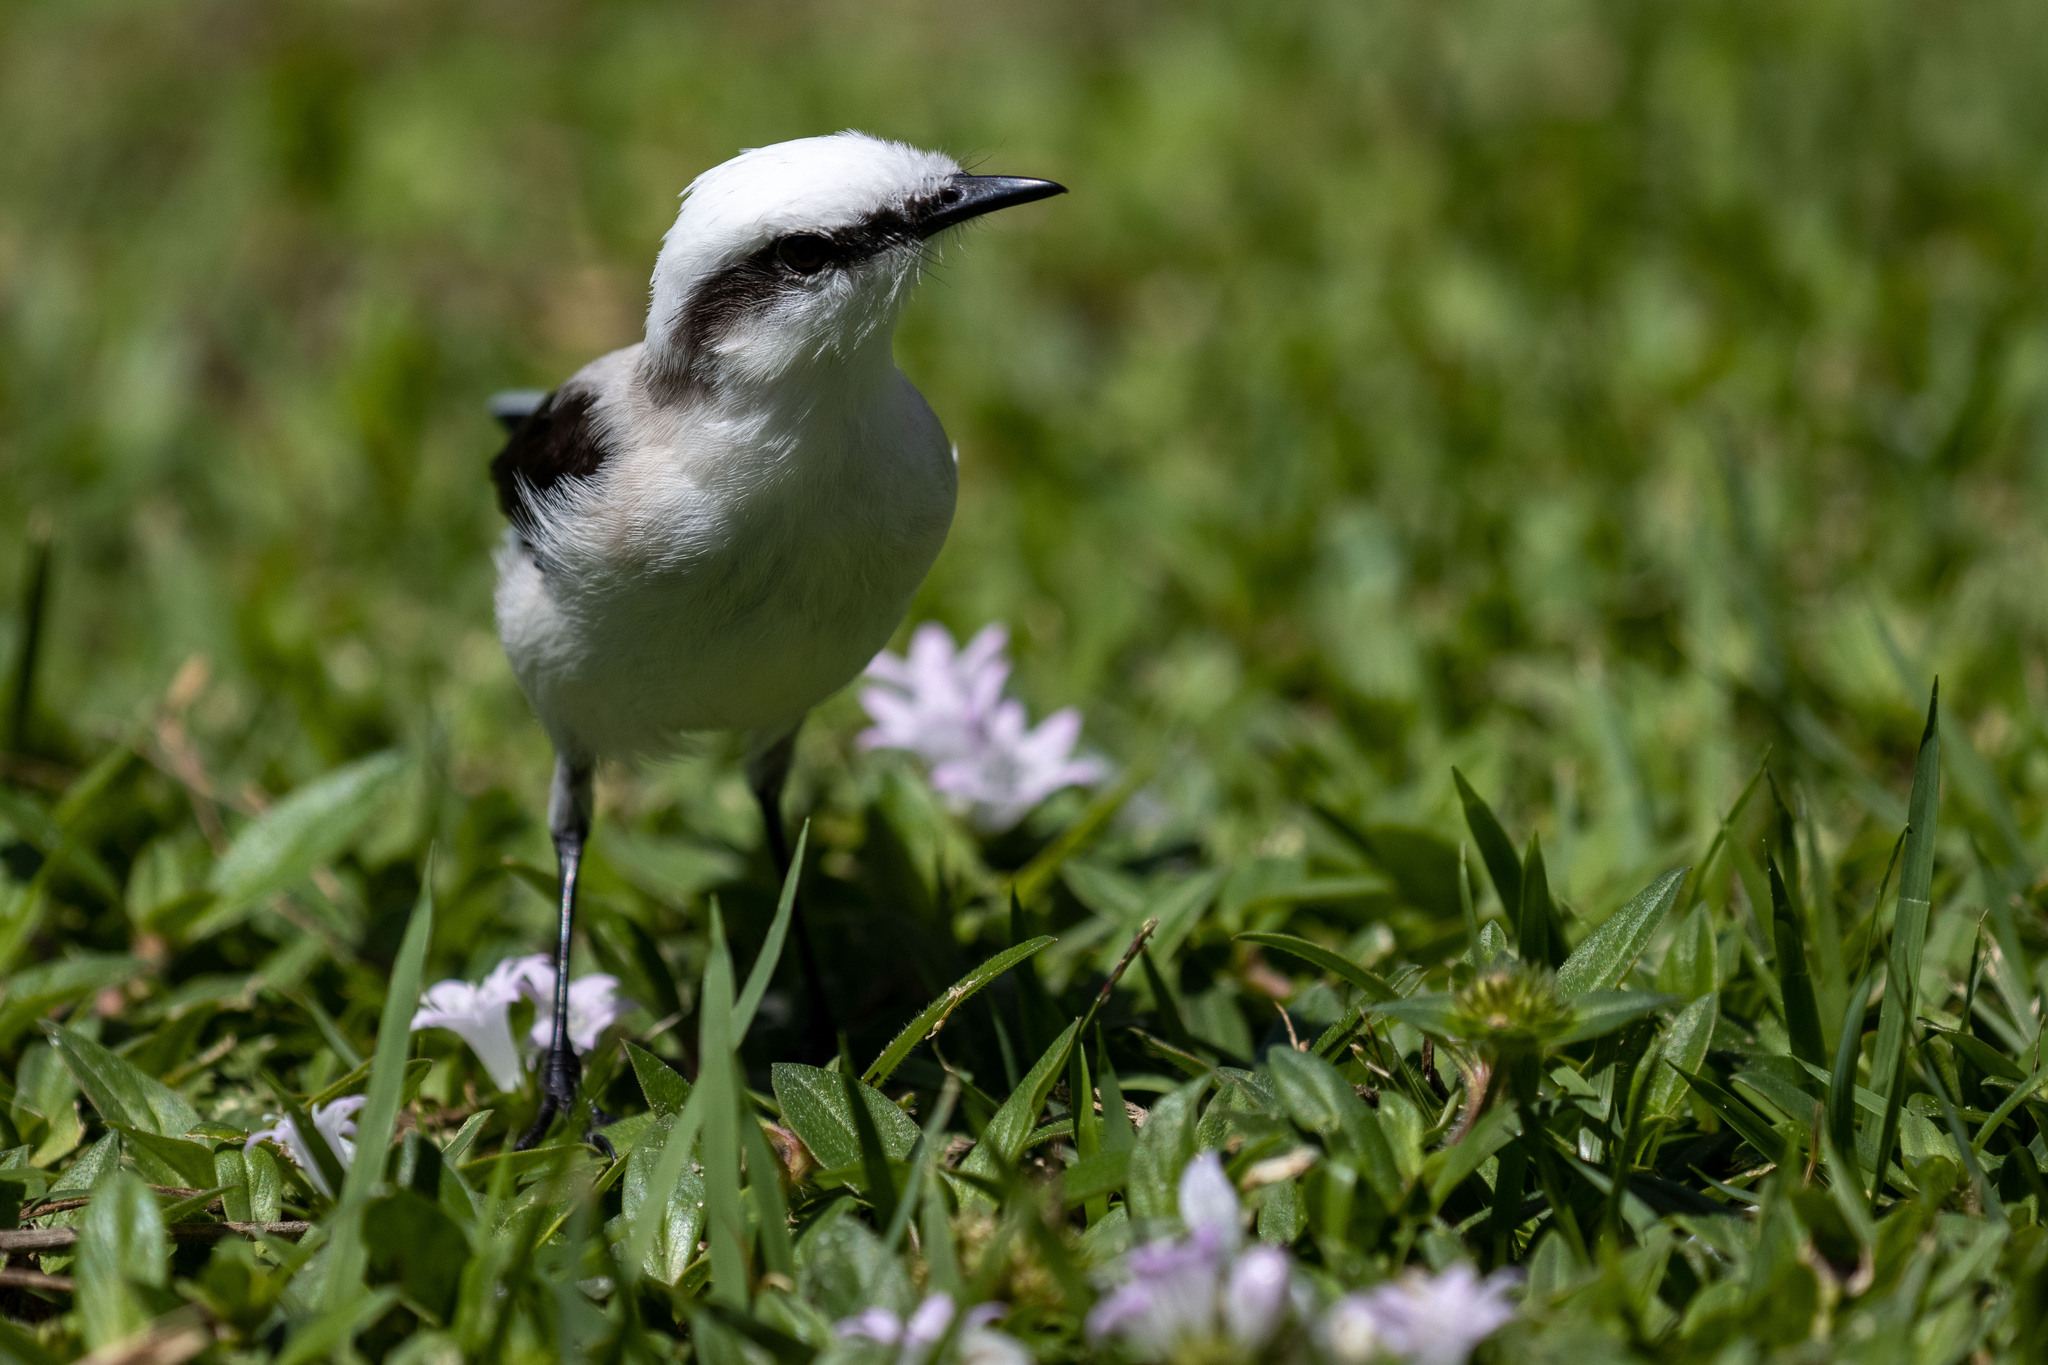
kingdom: Animalia
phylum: Chordata
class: Aves
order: Passeriformes
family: Tyrannidae
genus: Fluvicola
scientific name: Fluvicola nengeta
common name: Masked water tyrant
